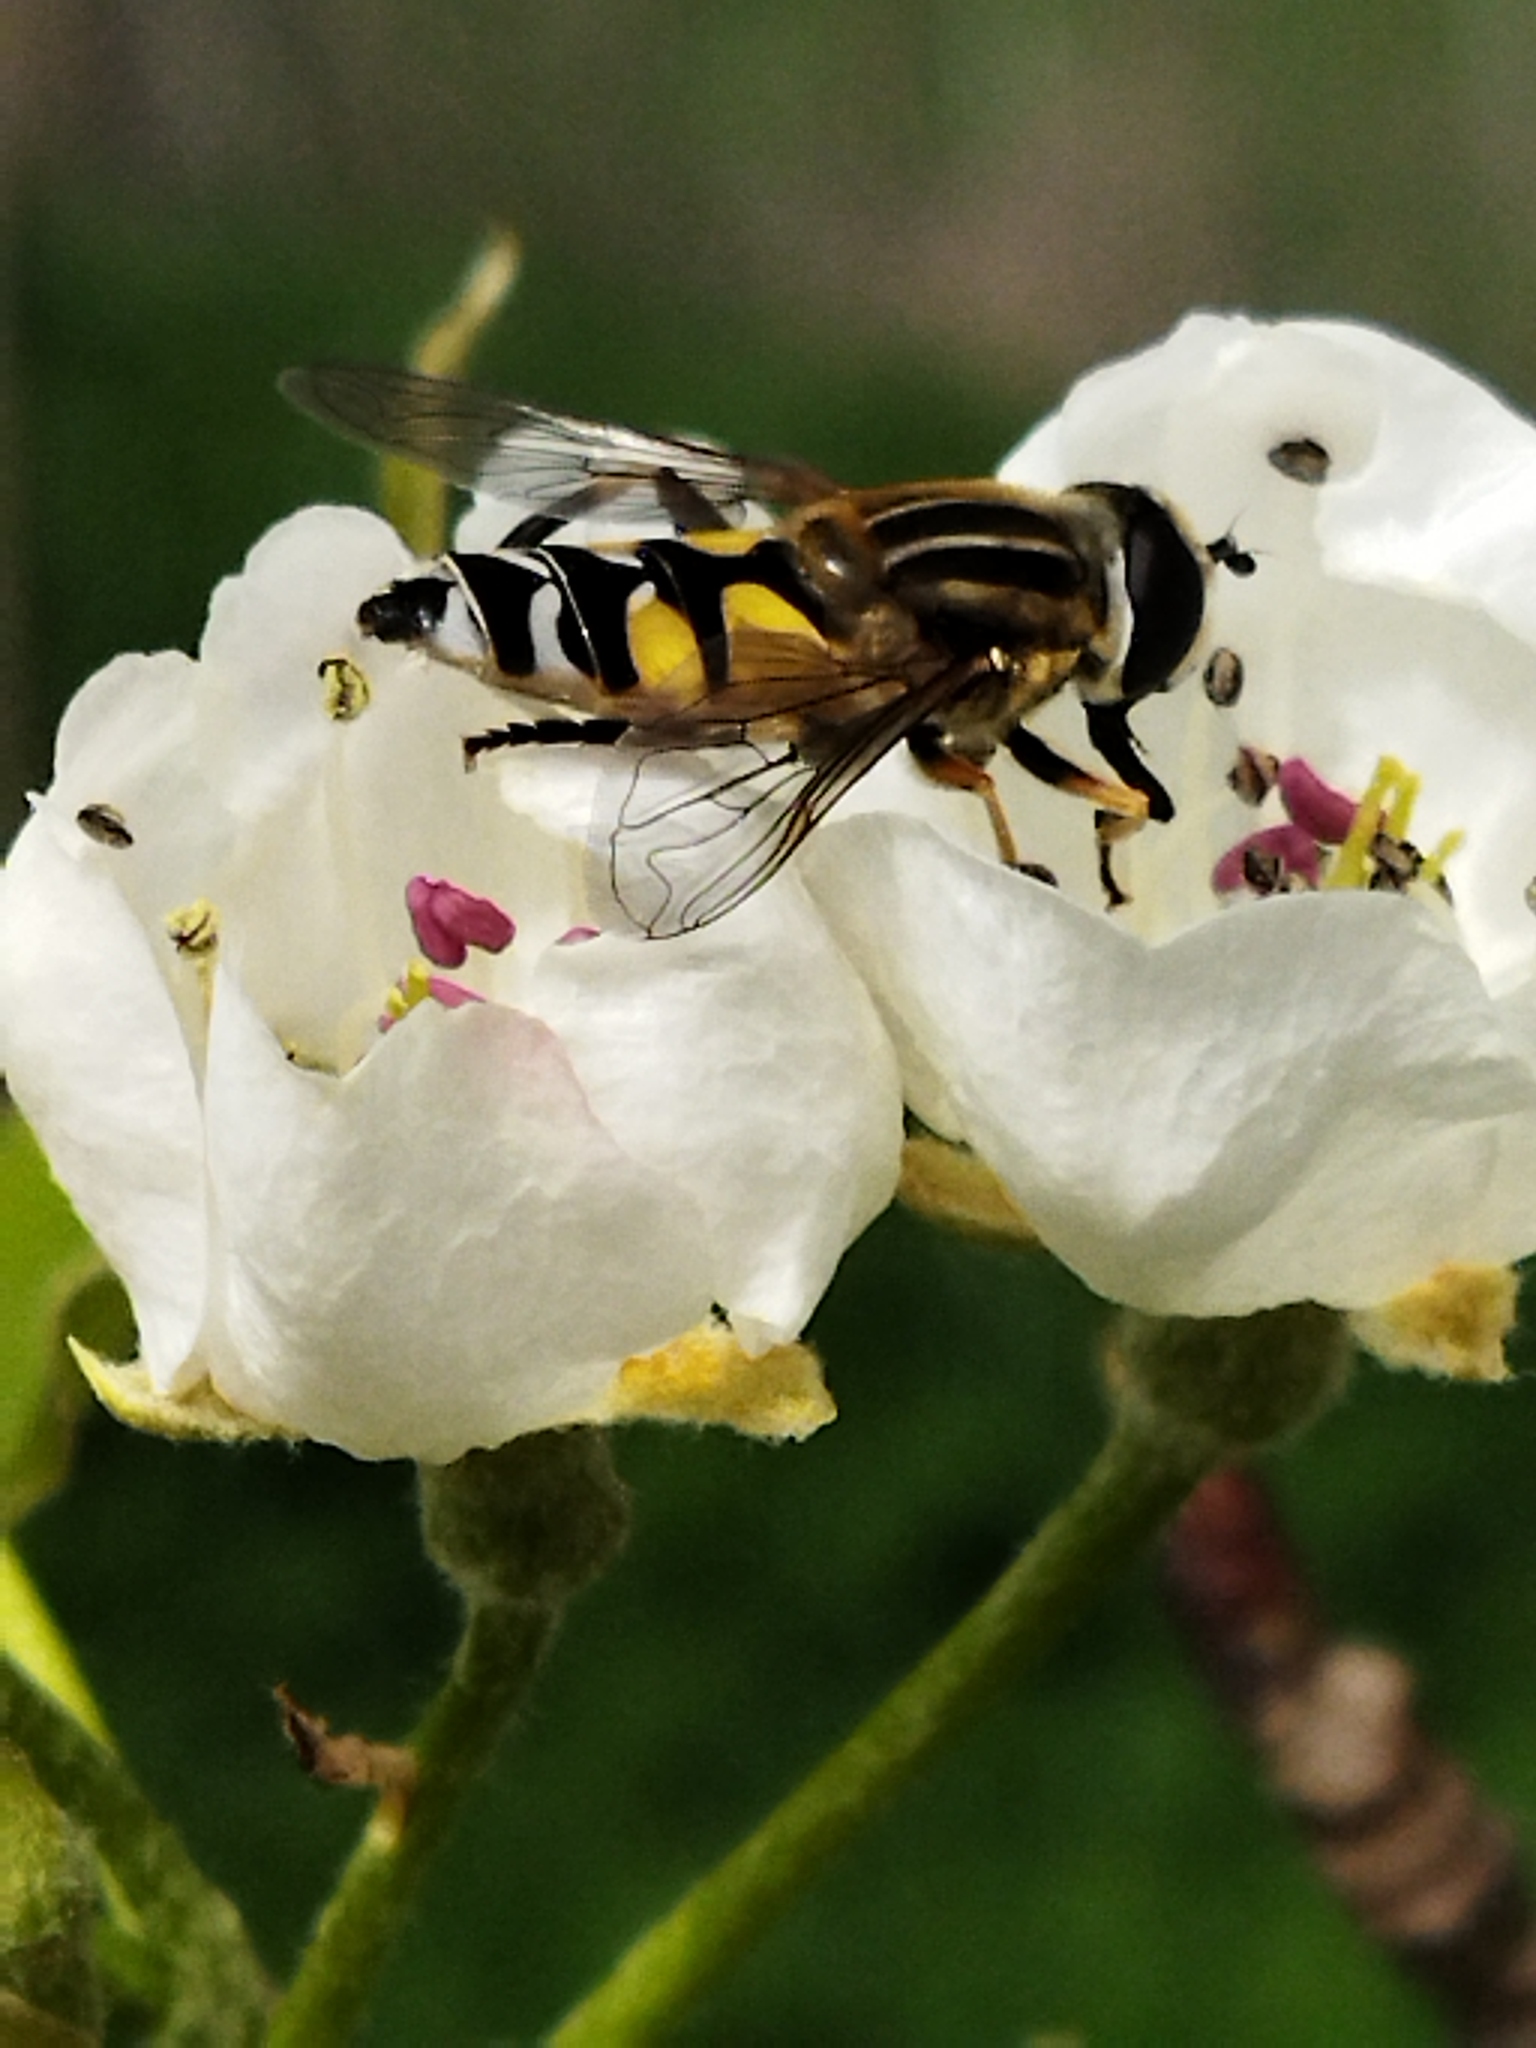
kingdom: Animalia
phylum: Arthropoda
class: Insecta
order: Diptera
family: Syrphidae
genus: Helophilus
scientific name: Helophilus trivittatus
